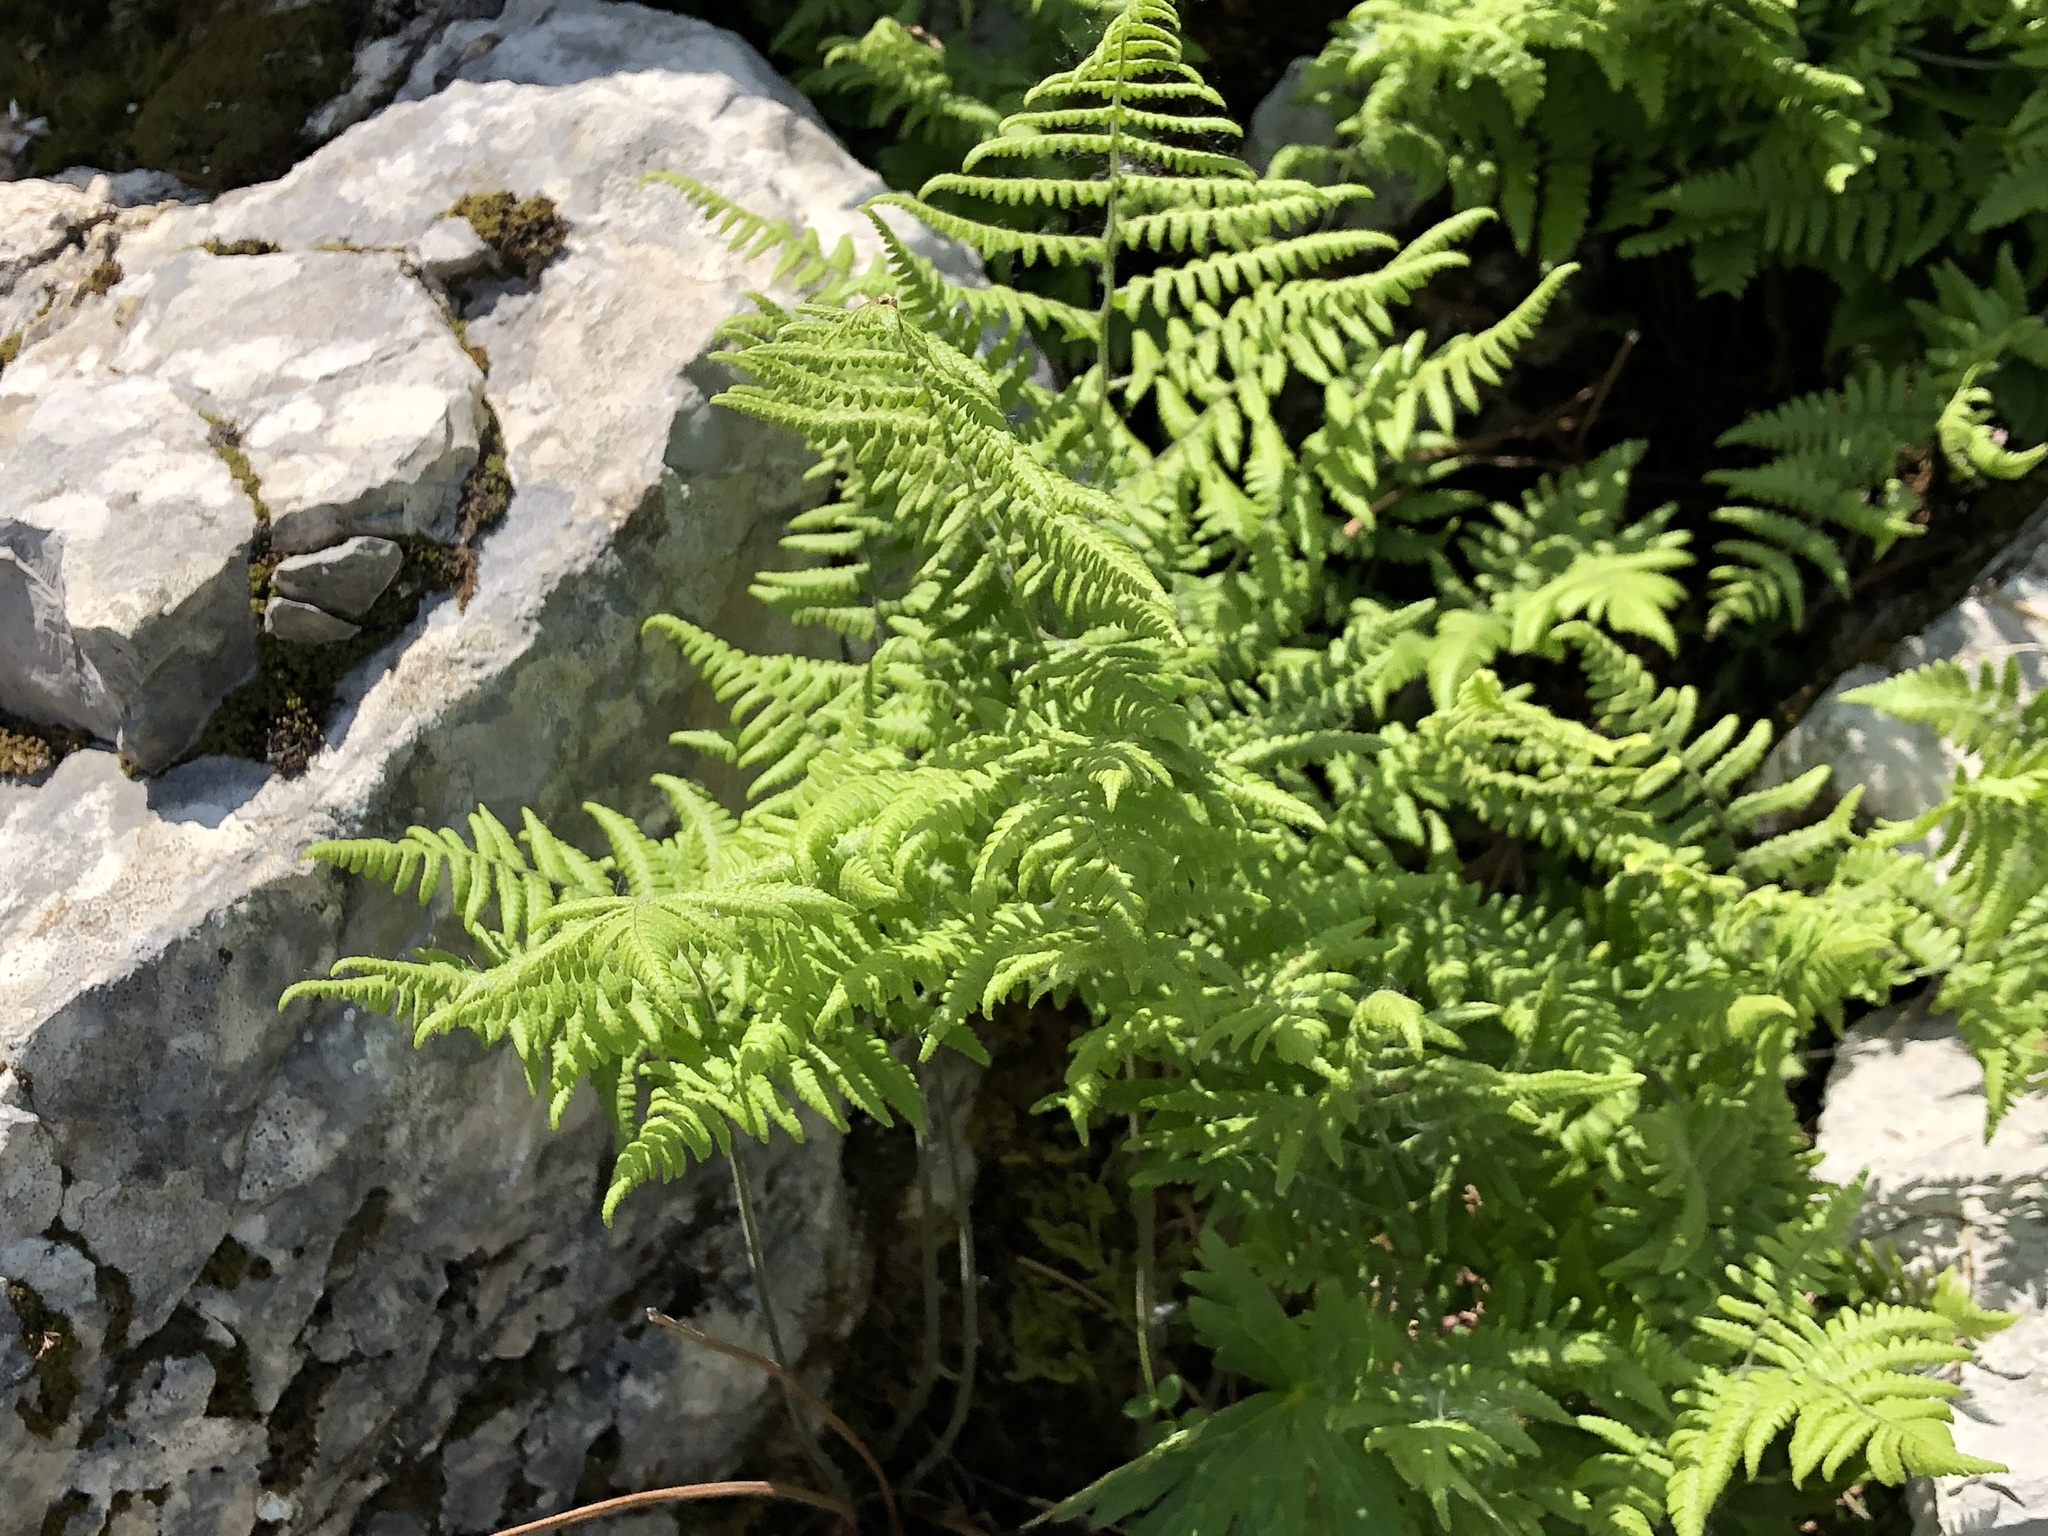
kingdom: Plantae
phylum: Tracheophyta
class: Polypodiopsida
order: Polypodiales
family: Cystopteridaceae
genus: Gymnocarpium
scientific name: Gymnocarpium robertianum
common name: Limestone fern
